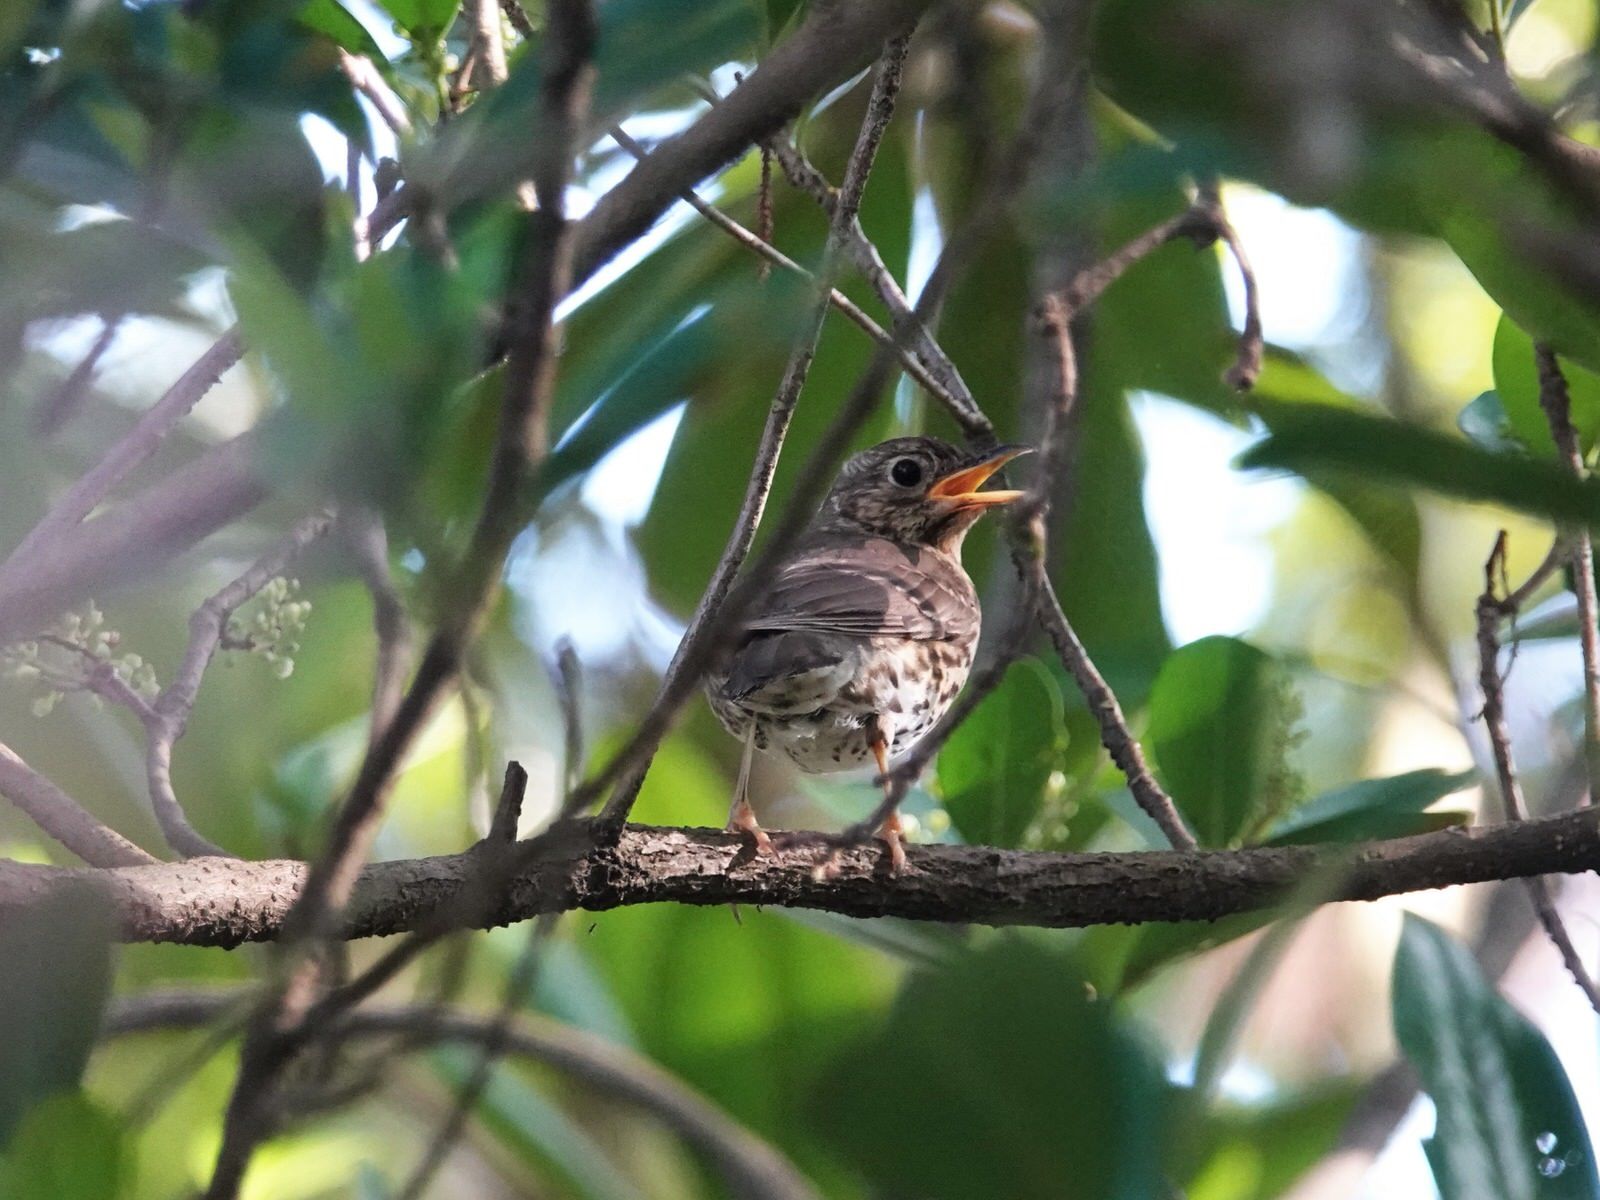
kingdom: Animalia
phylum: Chordata
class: Aves
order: Passeriformes
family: Turdidae
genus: Turdus
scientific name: Turdus philomelos
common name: Song thrush
